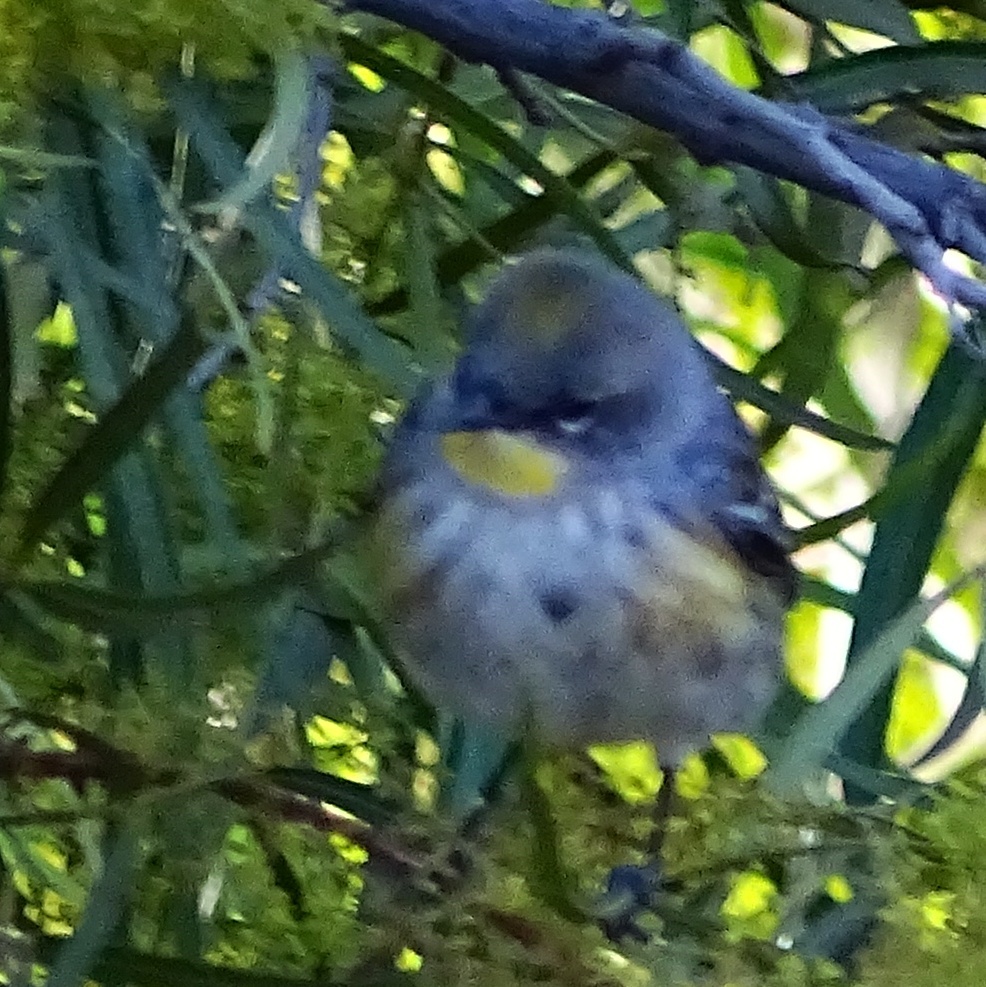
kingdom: Animalia
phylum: Chordata
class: Aves
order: Passeriformes
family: Parulidae
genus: Setophaga
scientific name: Setophaga coronata
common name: Myrtle warbler
